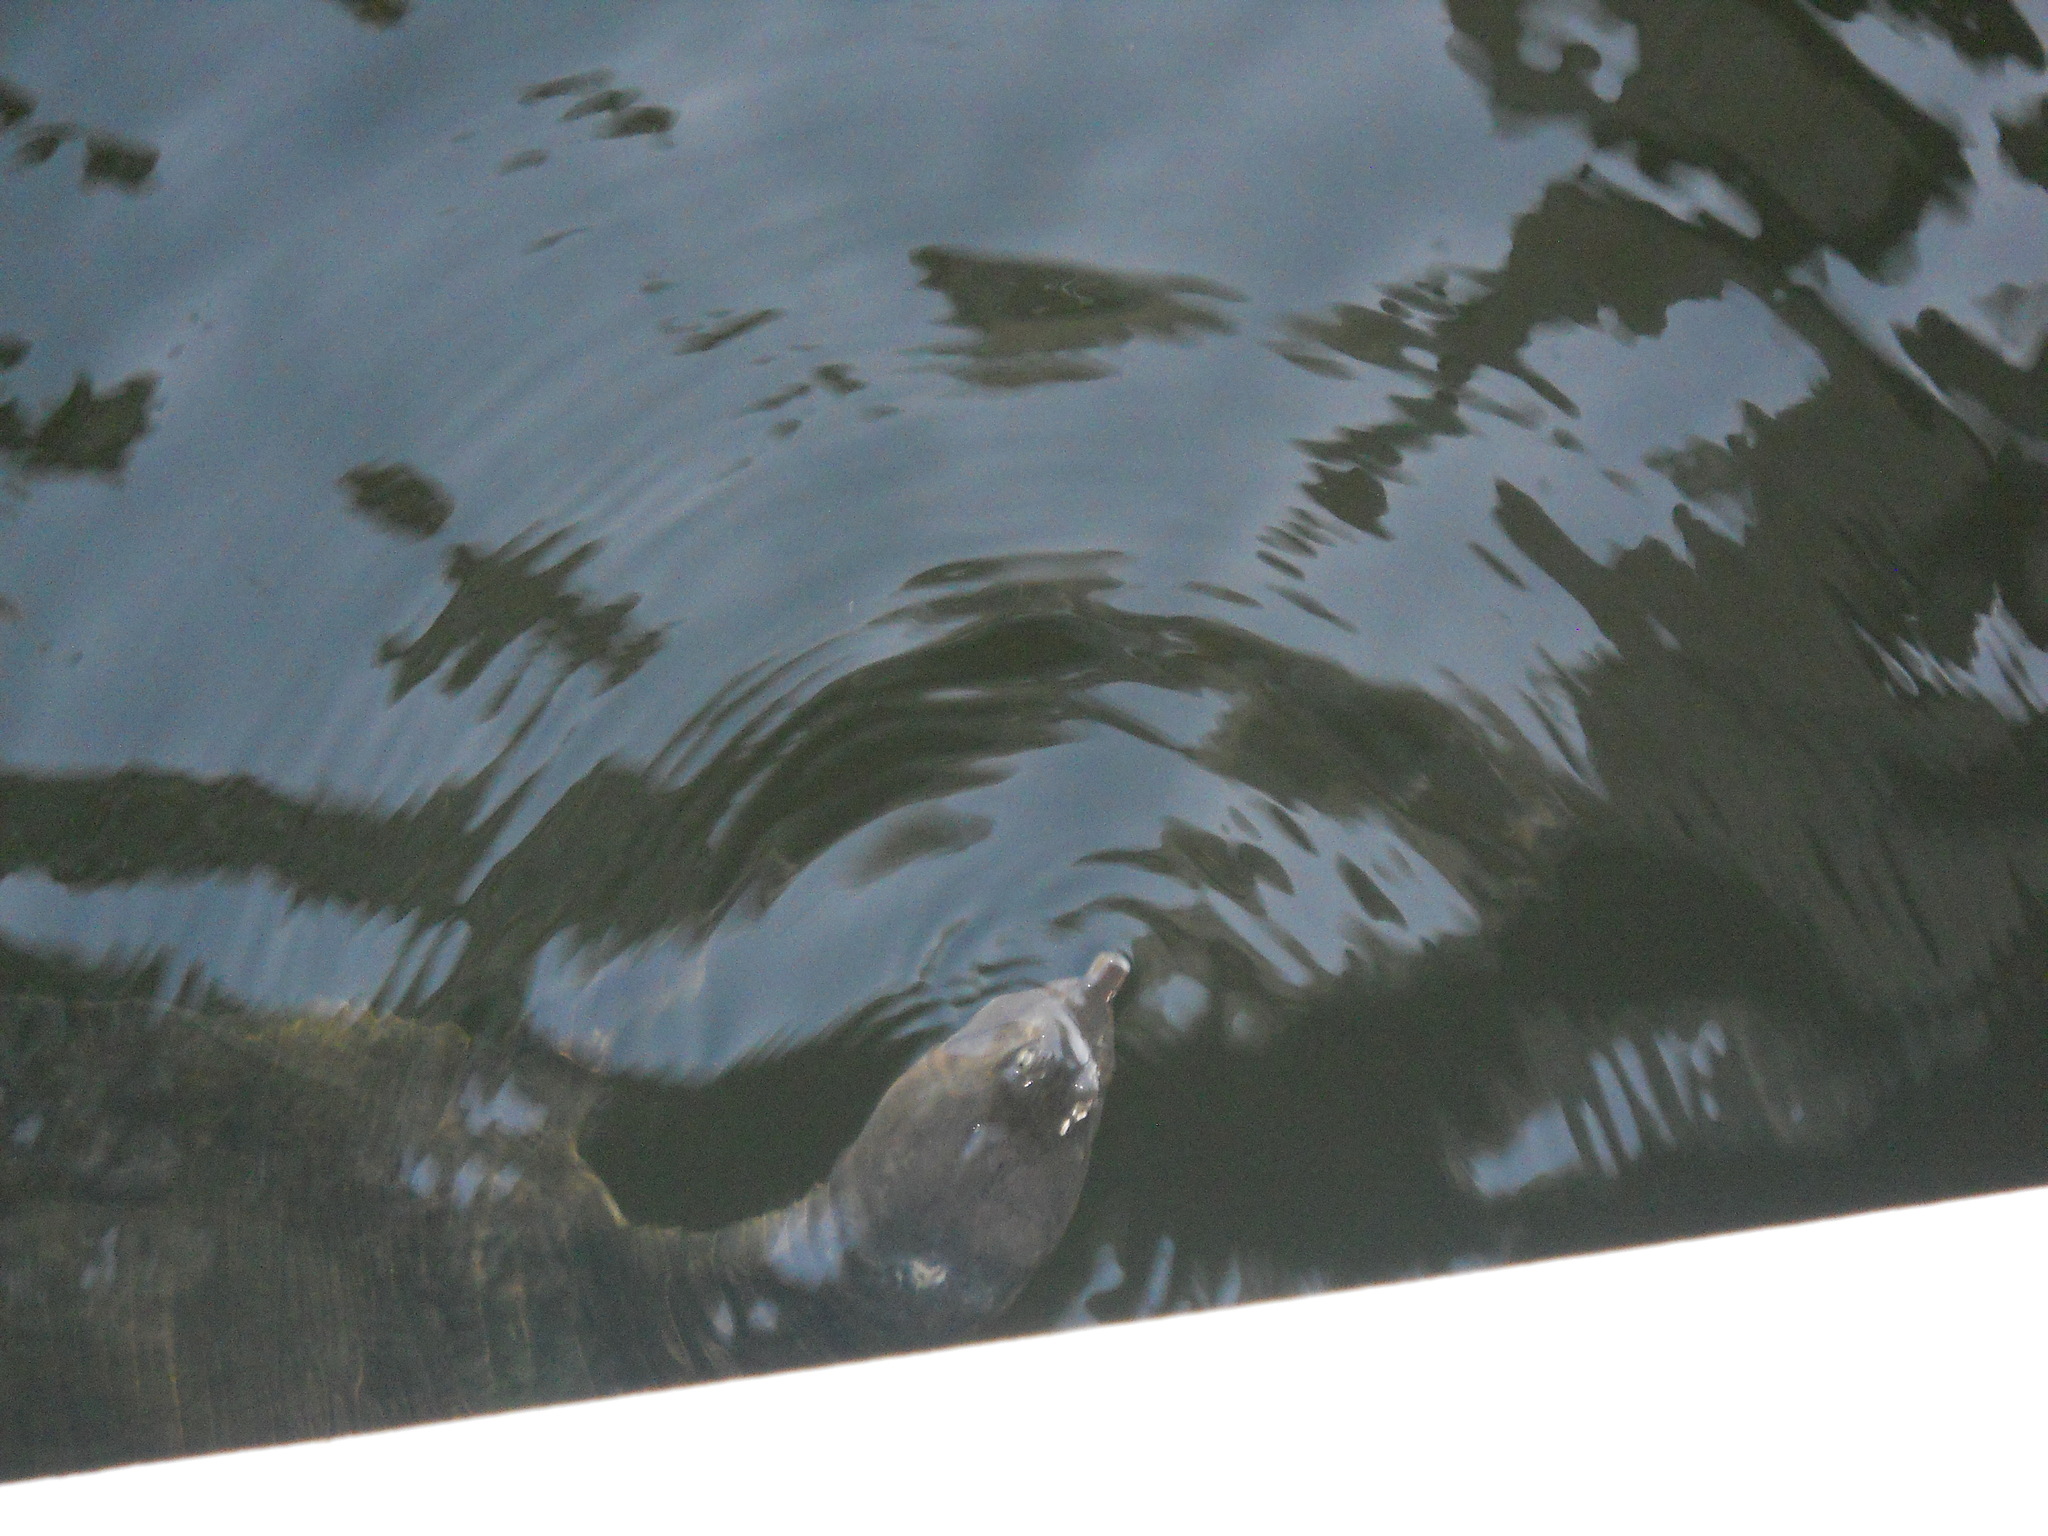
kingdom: Animalia
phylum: Chordata
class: Testudines
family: Trionychidae
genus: Apalone
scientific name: Apalone ferox
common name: Florida softshell turtle
